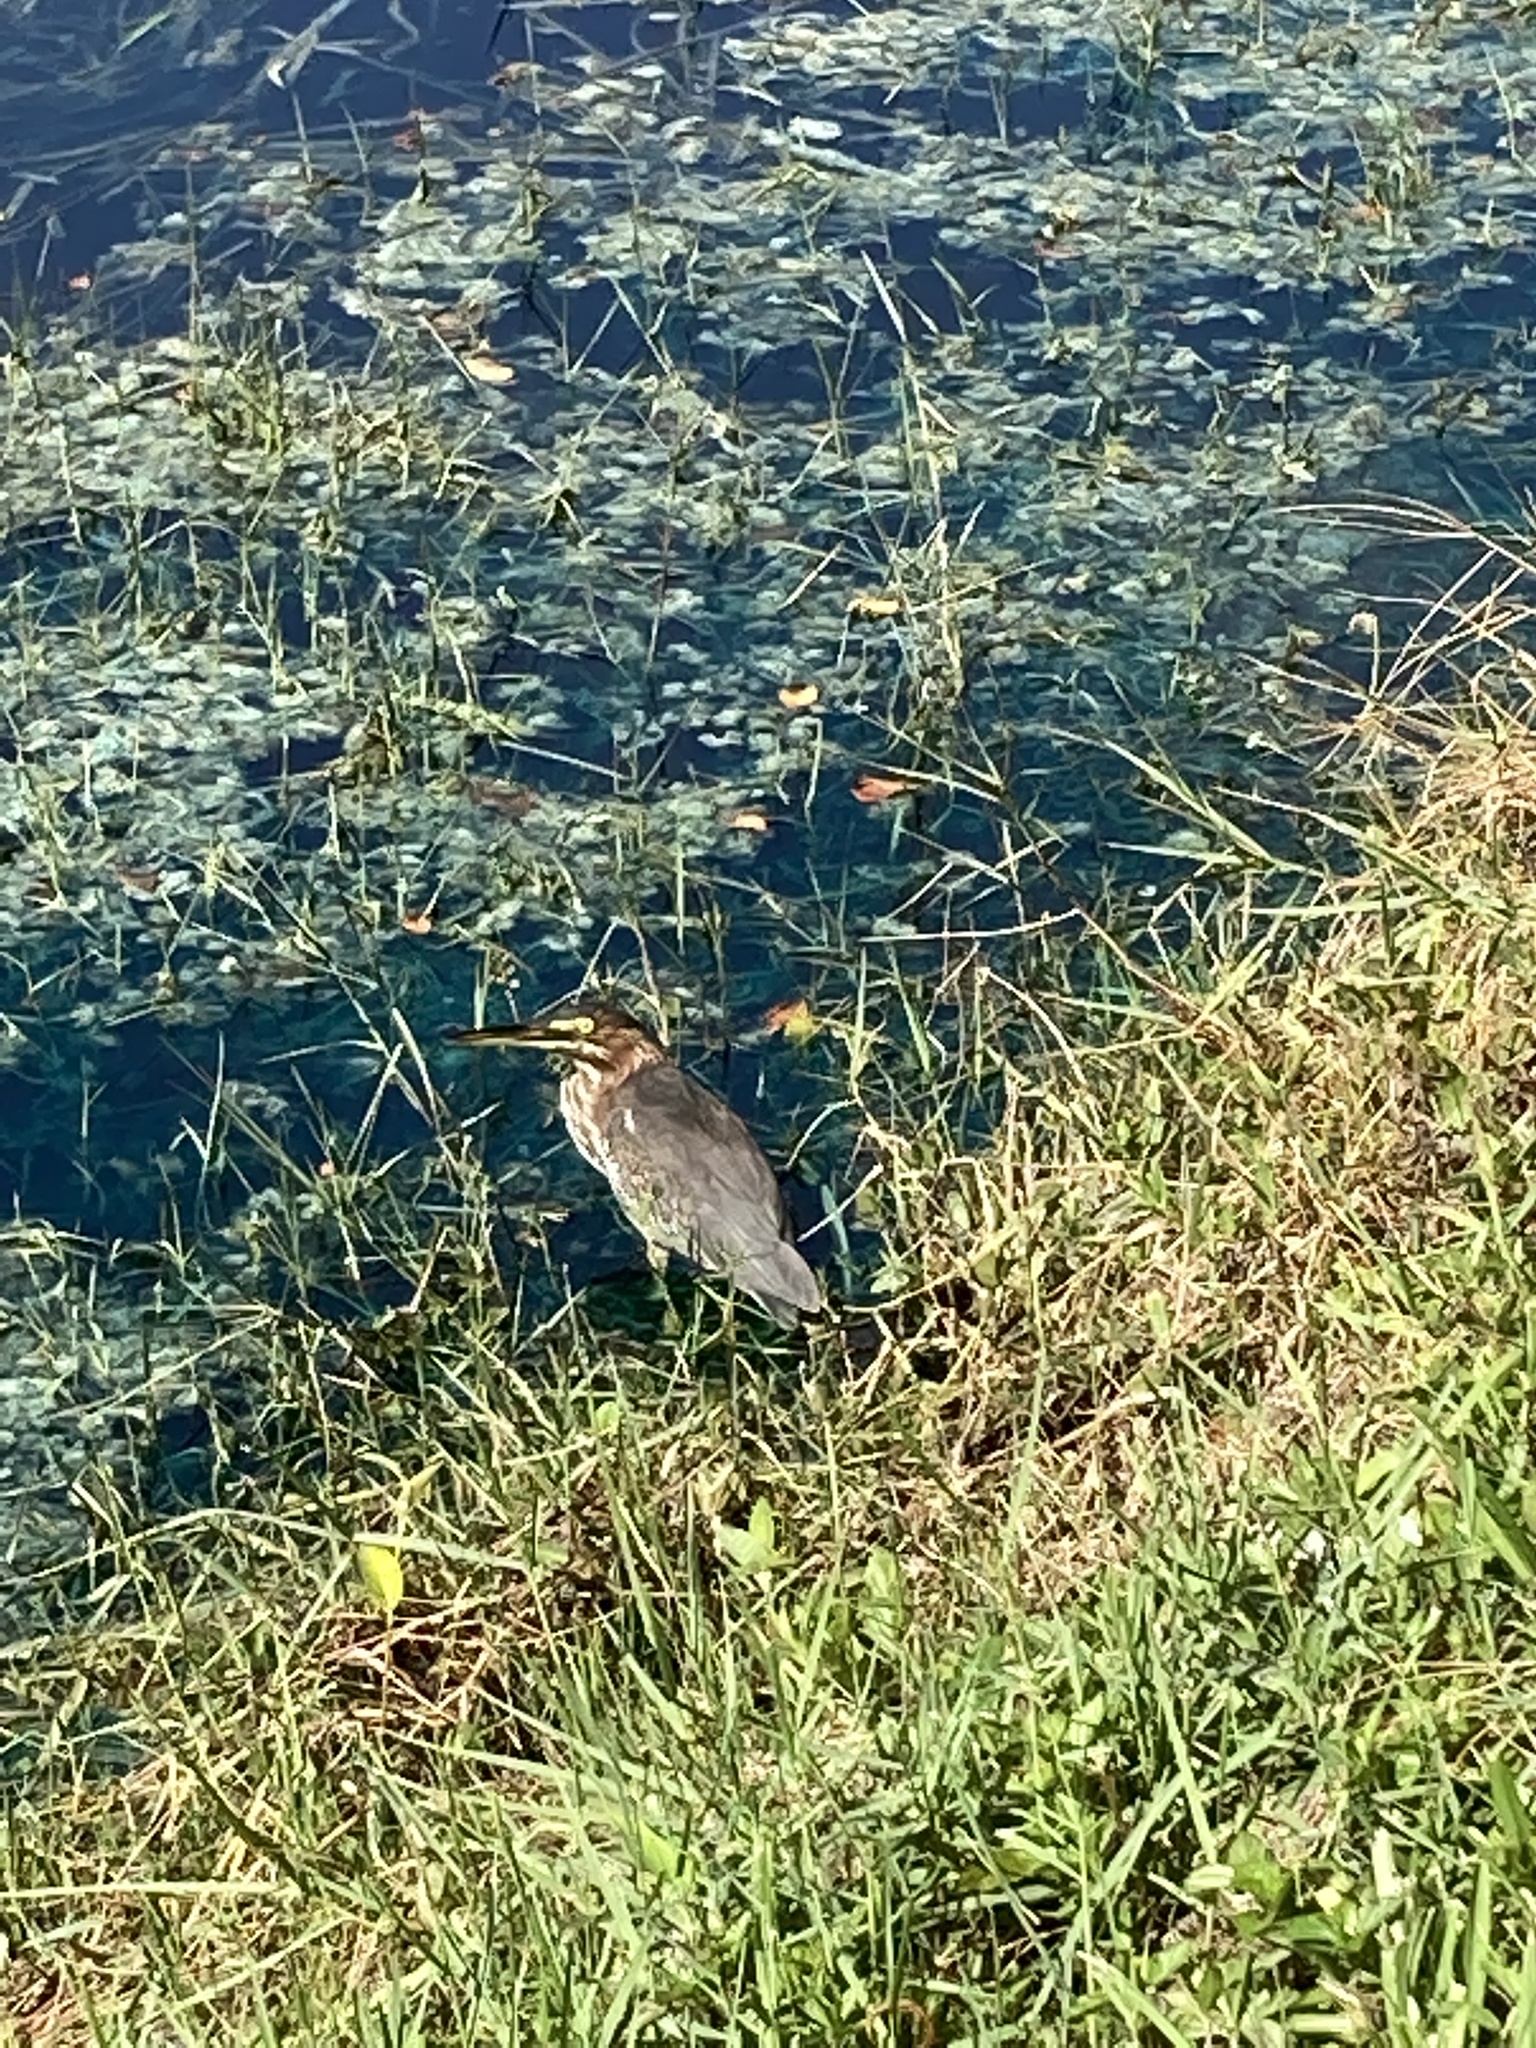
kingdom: Animalia
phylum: Chordata
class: Aves
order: Pelecaniformes
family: Ardeidae
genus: Butorides
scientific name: Butorides virescens
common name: Green heron
